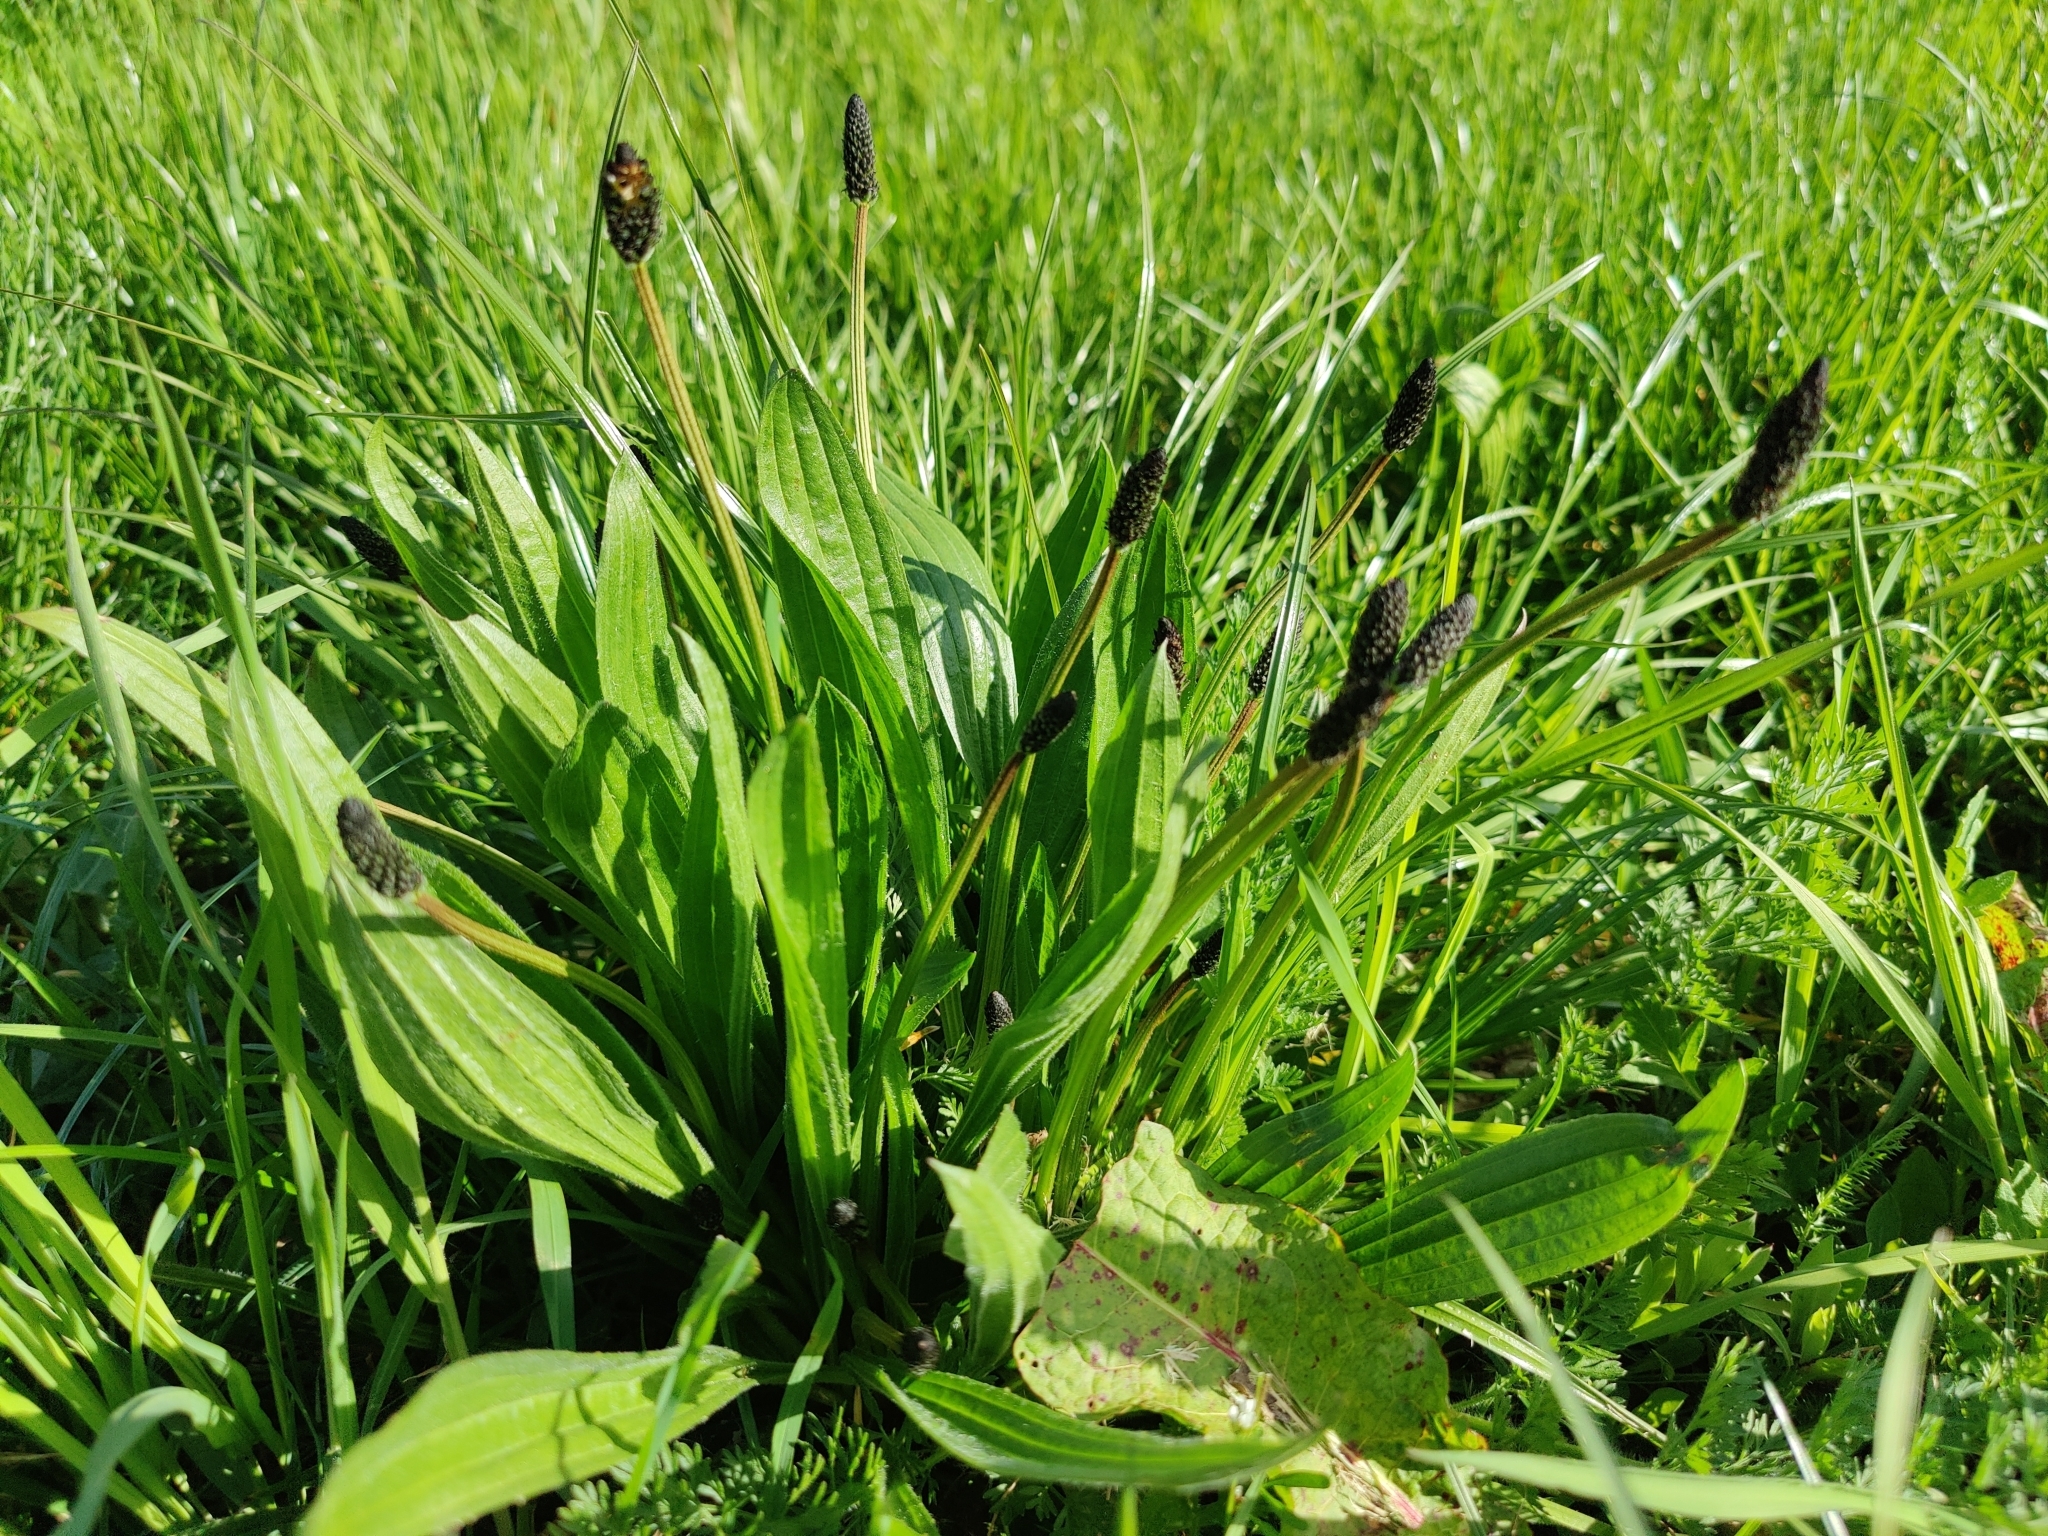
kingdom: Plantae
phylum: Tracheophyta
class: Magnoliopsida
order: Lamiales
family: Plantaginaceae
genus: Plantago
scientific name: Plantago lanceolata
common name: Ribwort plantain
